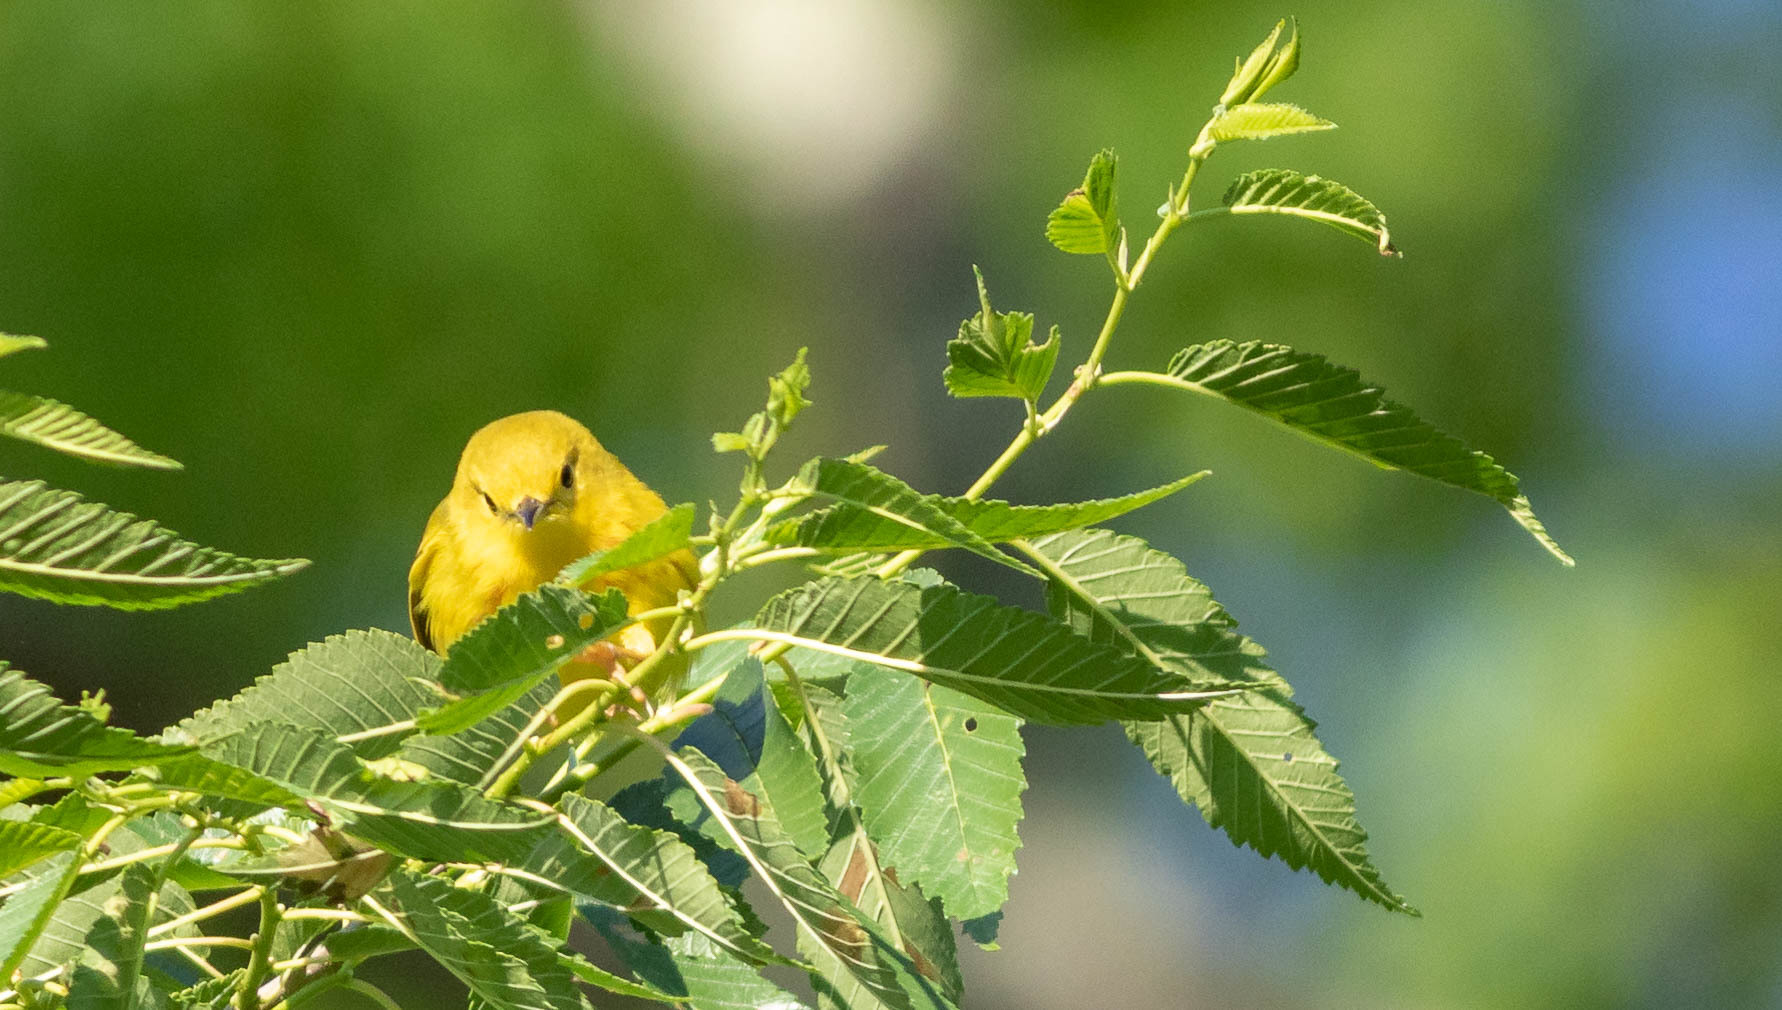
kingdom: Animalia
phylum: Chordata
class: Aves
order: Passeriformes
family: Parulidae
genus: Setophaga
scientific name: Setophaga petechia
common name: Yellow warbler
